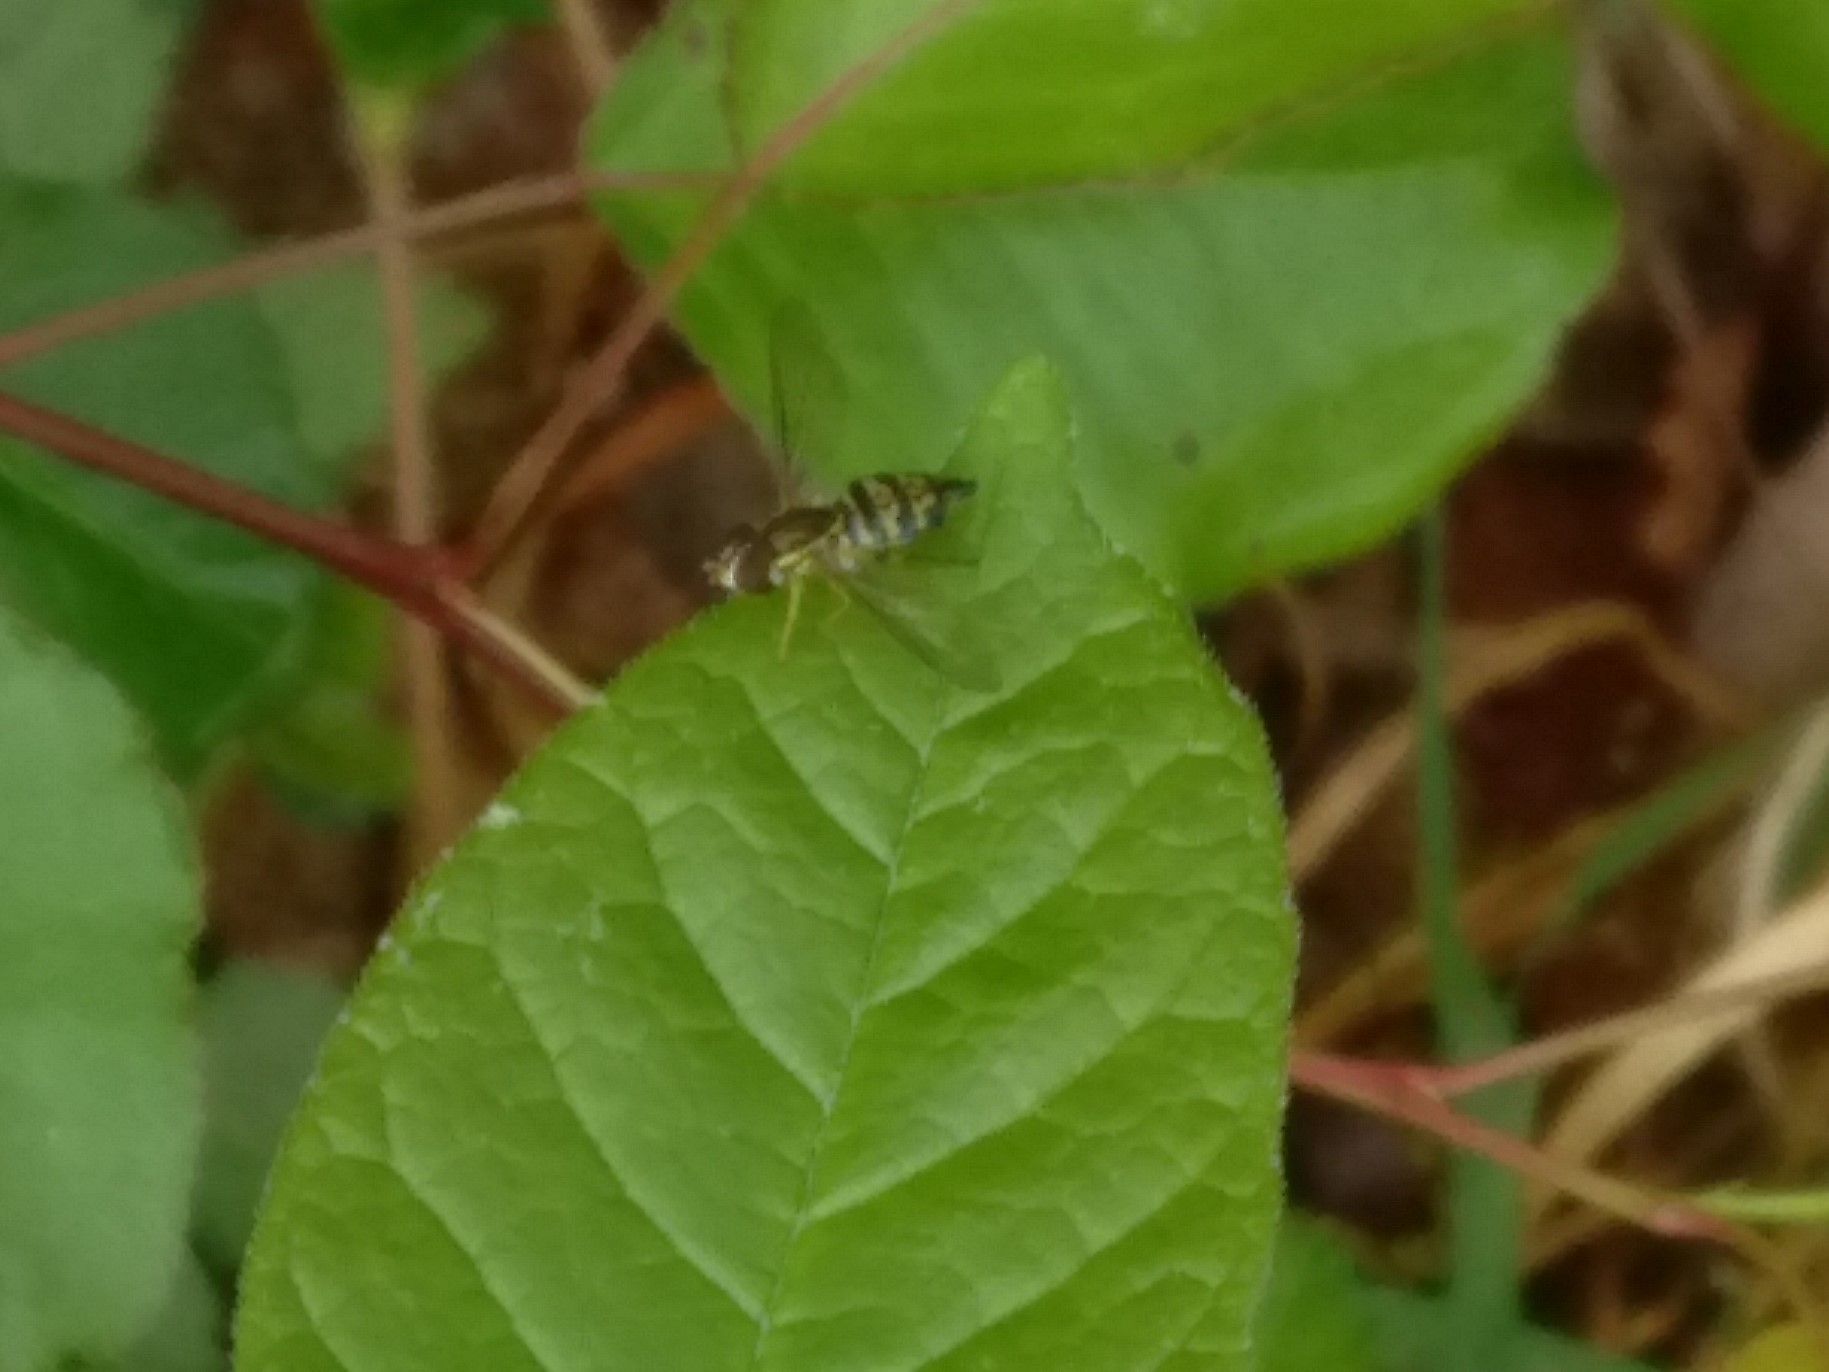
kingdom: Animalia
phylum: Arthropoda
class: Insecta
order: Diptera
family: Syrphidae
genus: Toxomerus
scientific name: Toxomerus geminatus
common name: Eastern calligrapher
